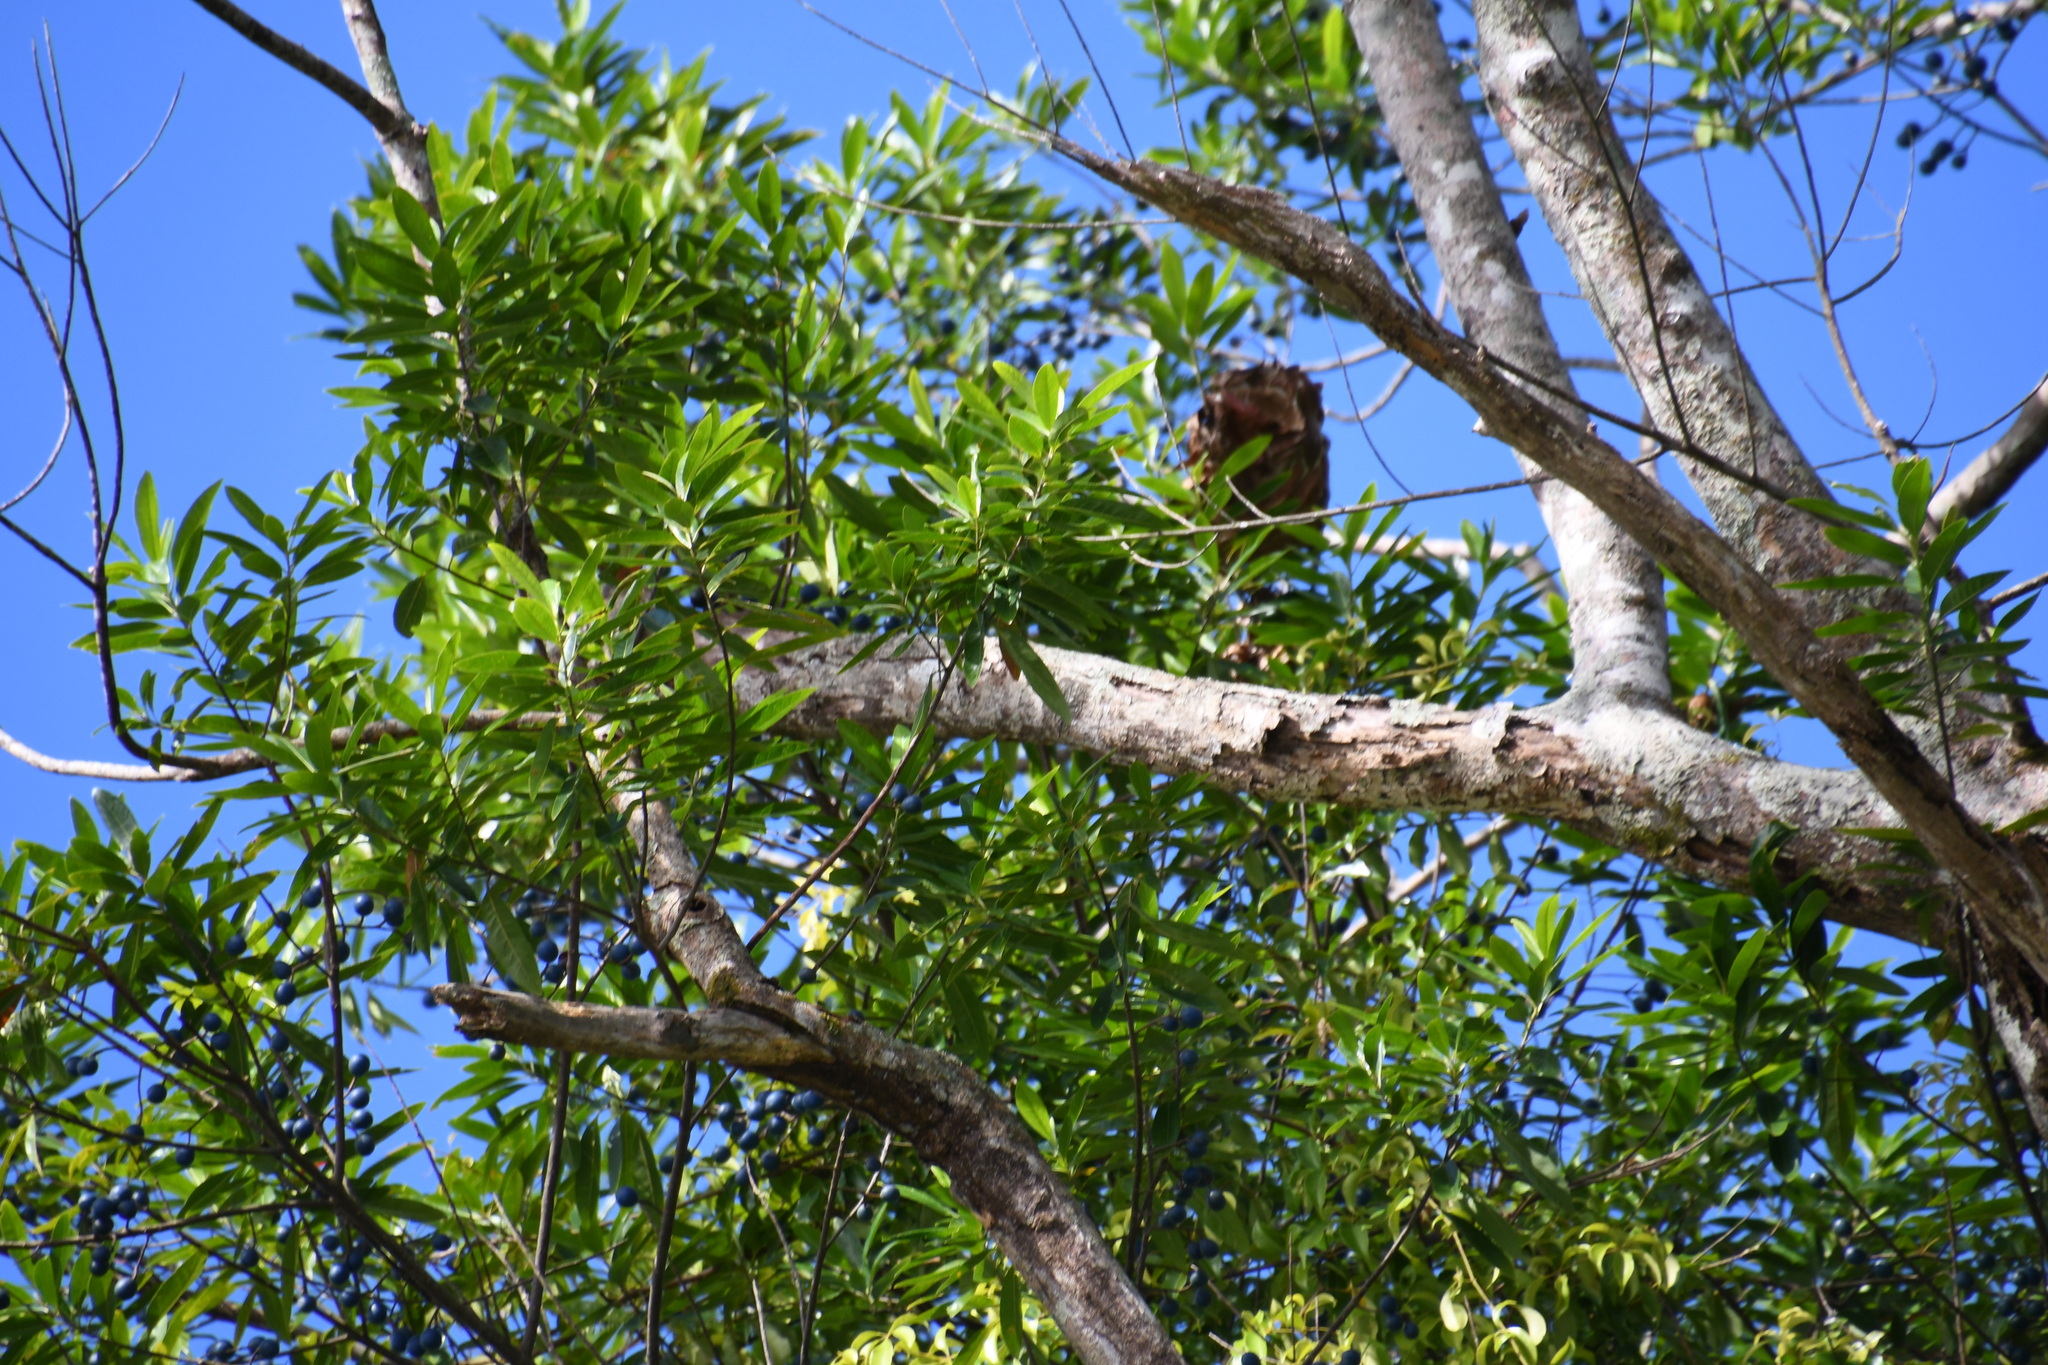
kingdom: Plantae
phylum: Tracheophyta
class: Magnoliopsida
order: Oxalidales
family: Elaeocarpaceae
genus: Elaeocarpus
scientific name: Elaeocarpus angustifolius
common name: Blue marble tree
